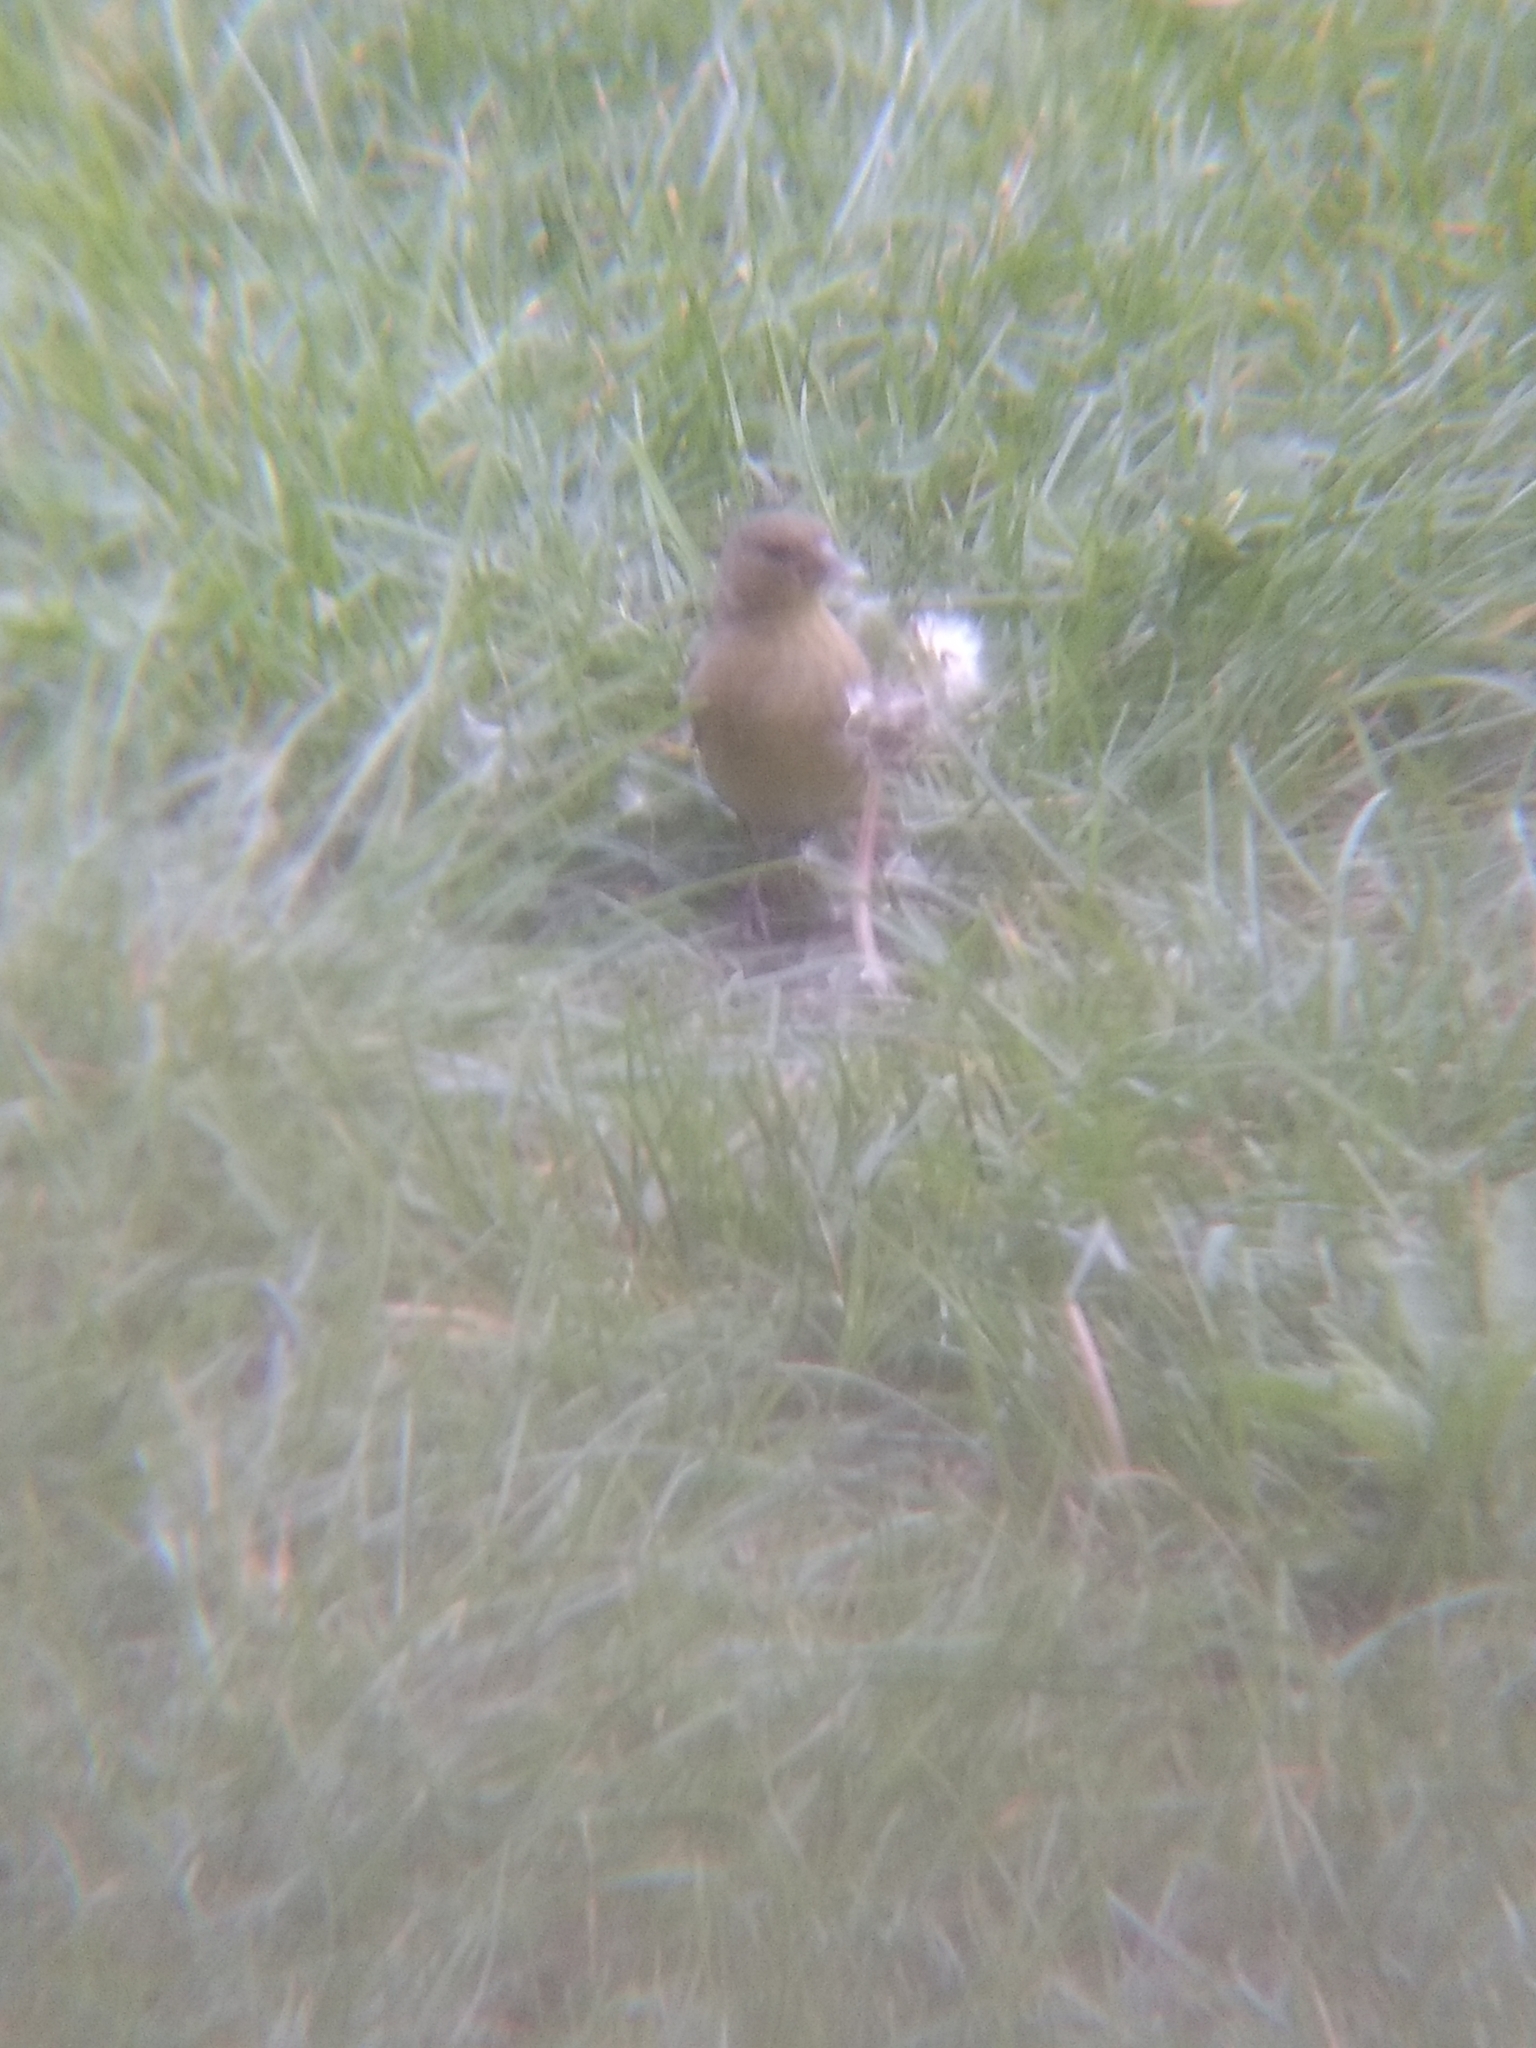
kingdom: Animalia
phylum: Chordata
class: Aves
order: Passeriformes
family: Fringillidae
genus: Spinus
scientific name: Spinus psaltria
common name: Lesser goldfinch
